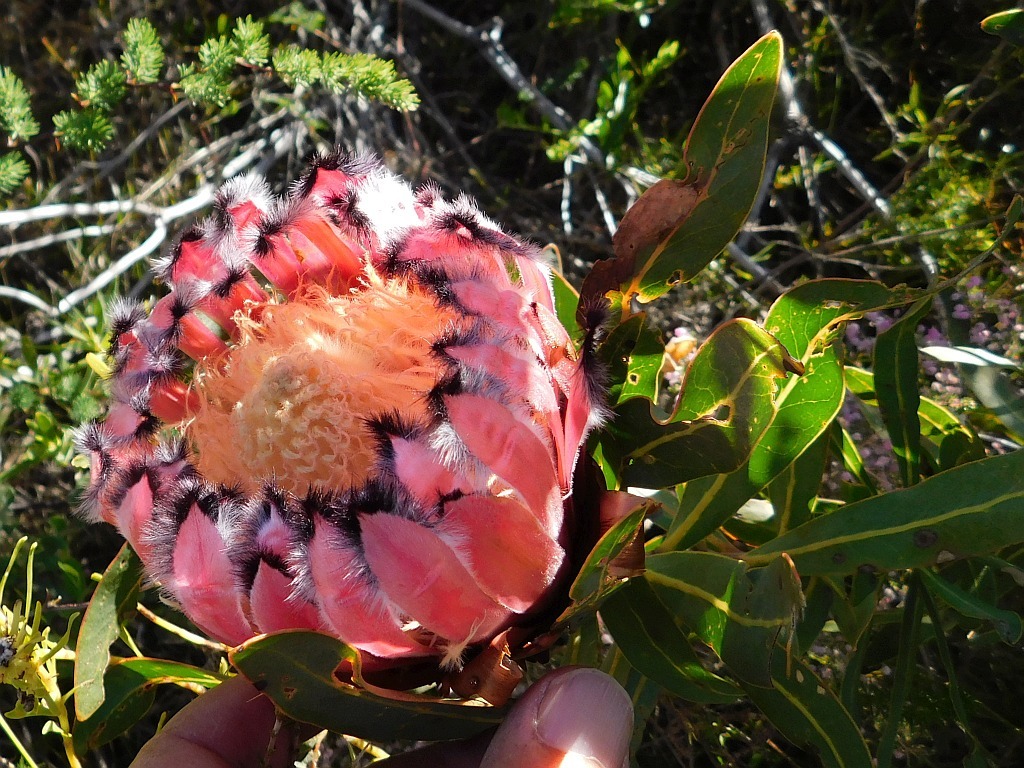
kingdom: Plantae
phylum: Tracheophyta
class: Magnoliopsida
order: Proteales
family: Proteaceae
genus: Protea
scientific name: Protea neriifolia
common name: Blue sugarbush
